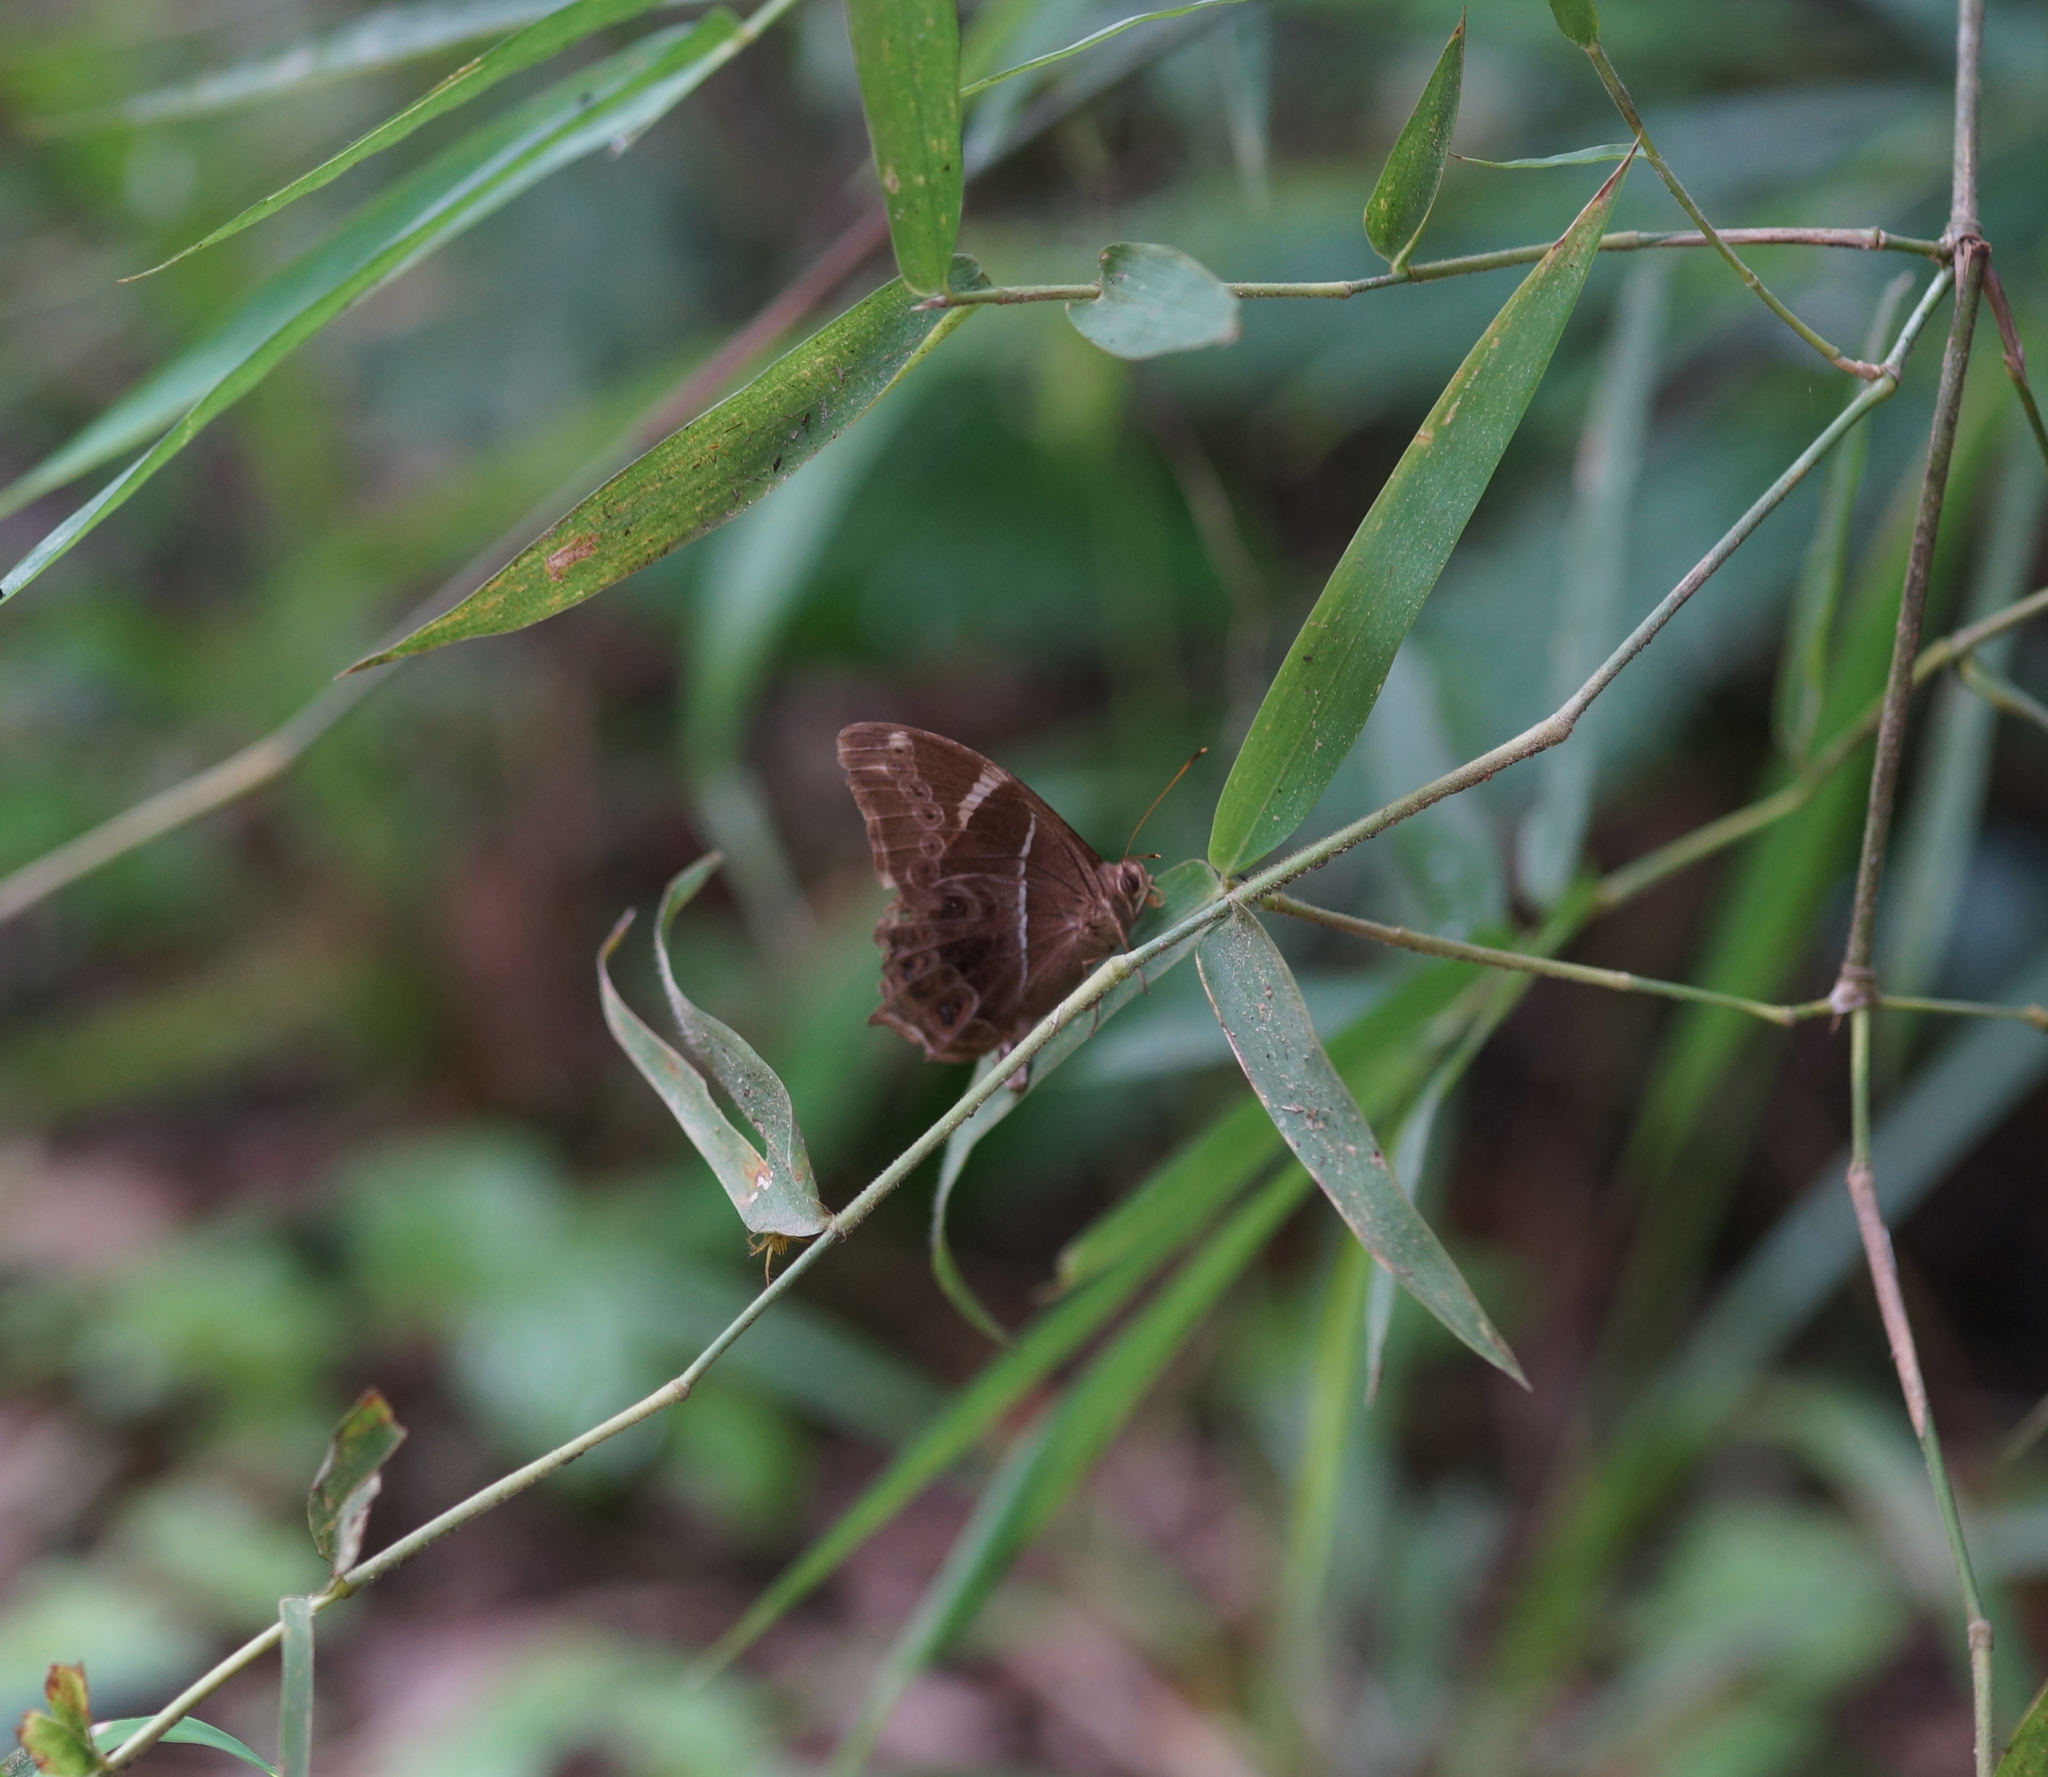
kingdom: Animalia
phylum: Arthropoda
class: Insecta
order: Lepidoptera
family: Nymphalidae
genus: Lethe
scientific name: Lethe europa
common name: Bamboo treebrown
